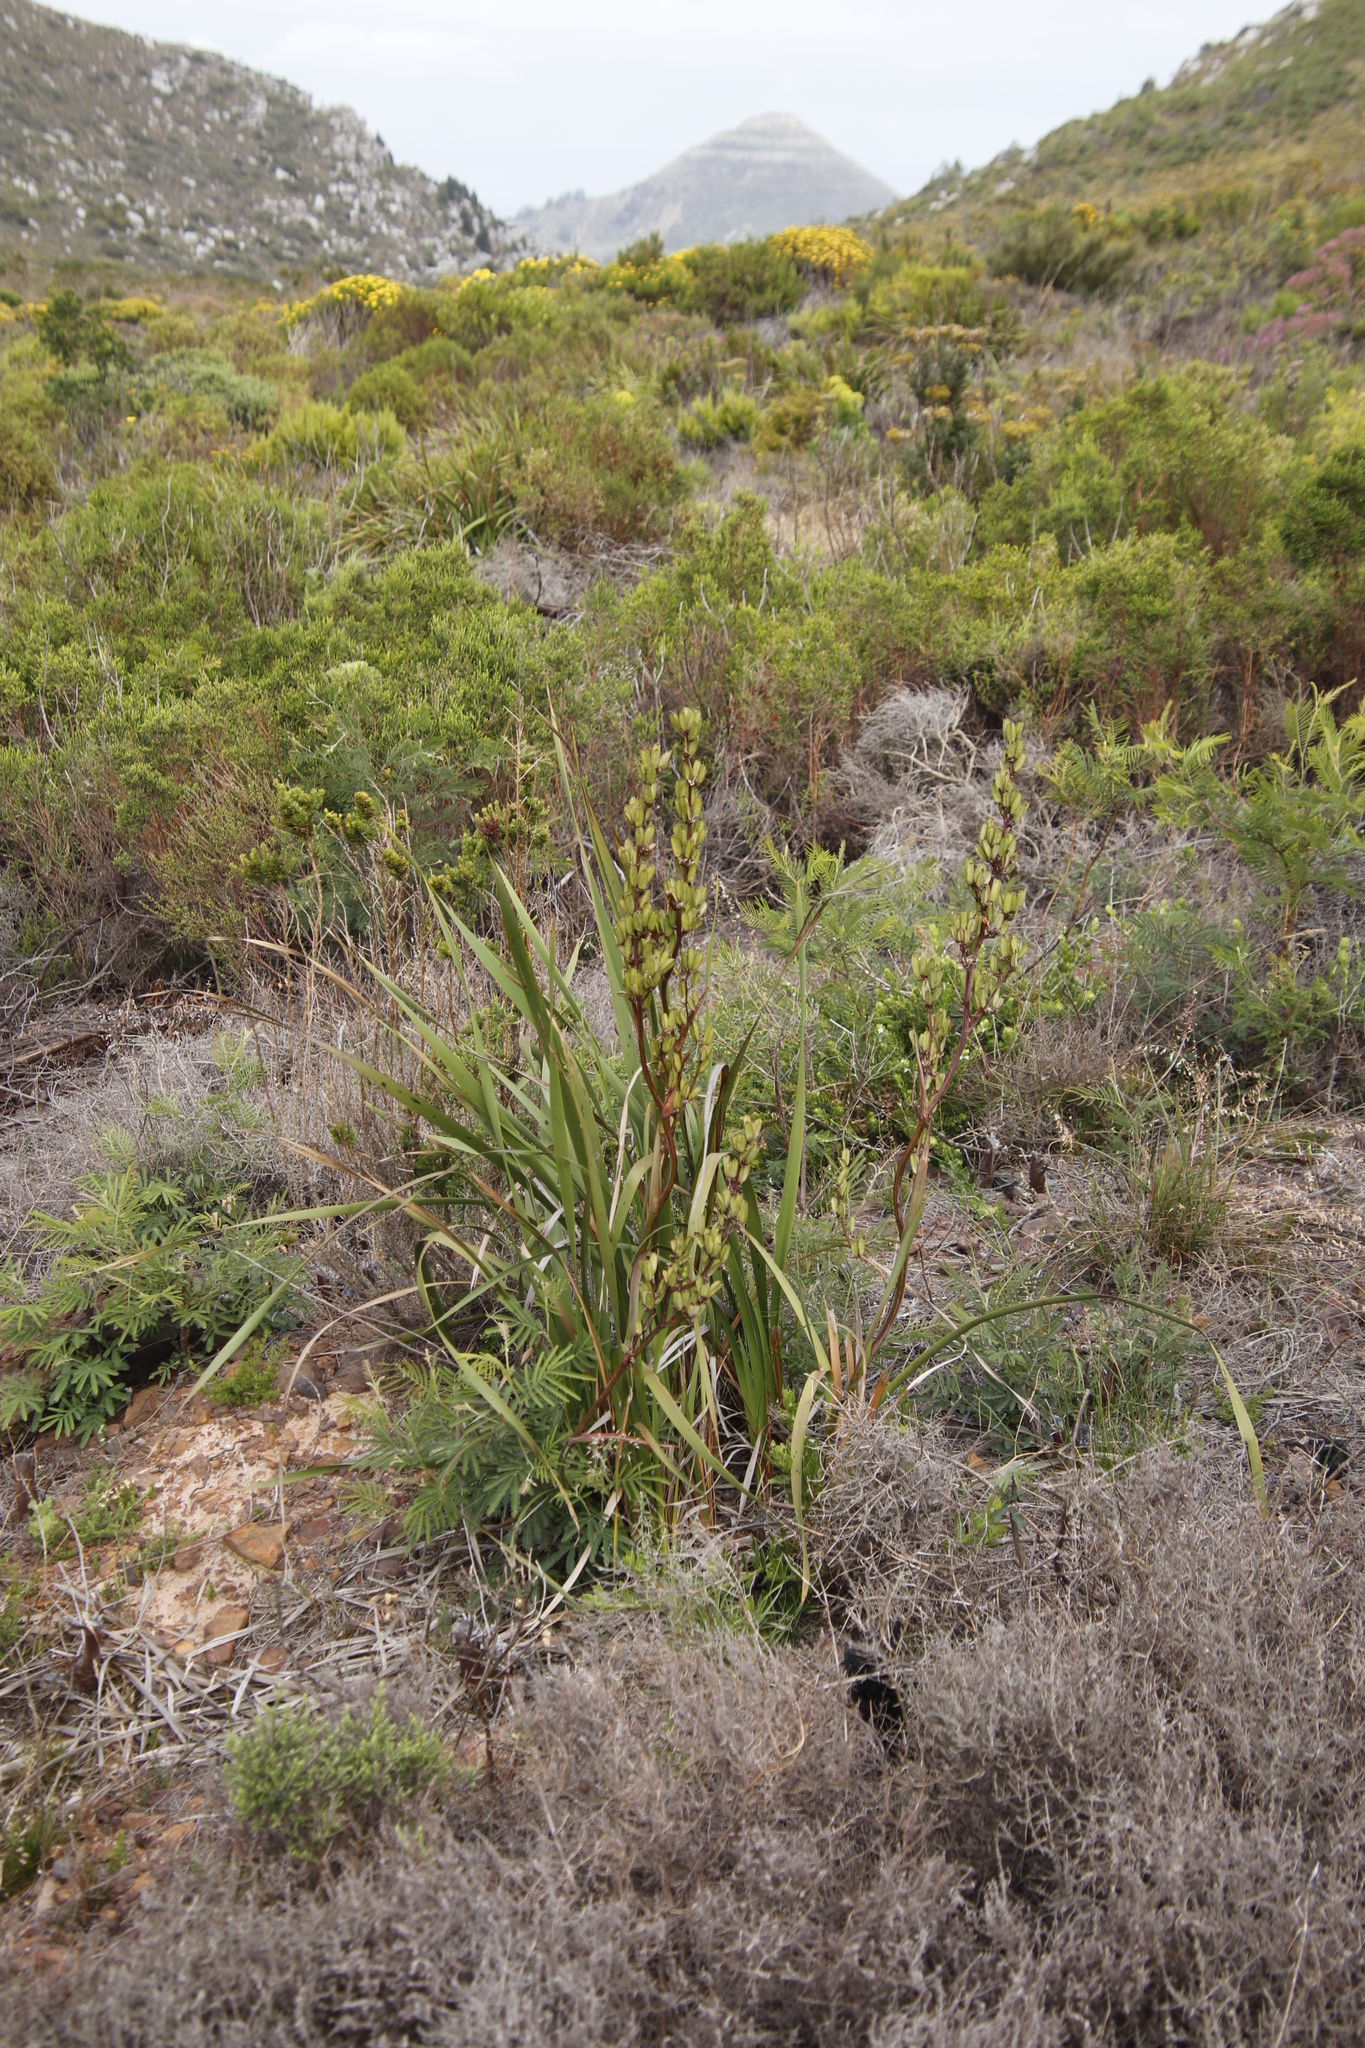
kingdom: Plantae
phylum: Tracheophyta
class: Liliopsida
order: Asparagales
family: Iridaceae
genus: Aristea
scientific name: Aristea bakeri
